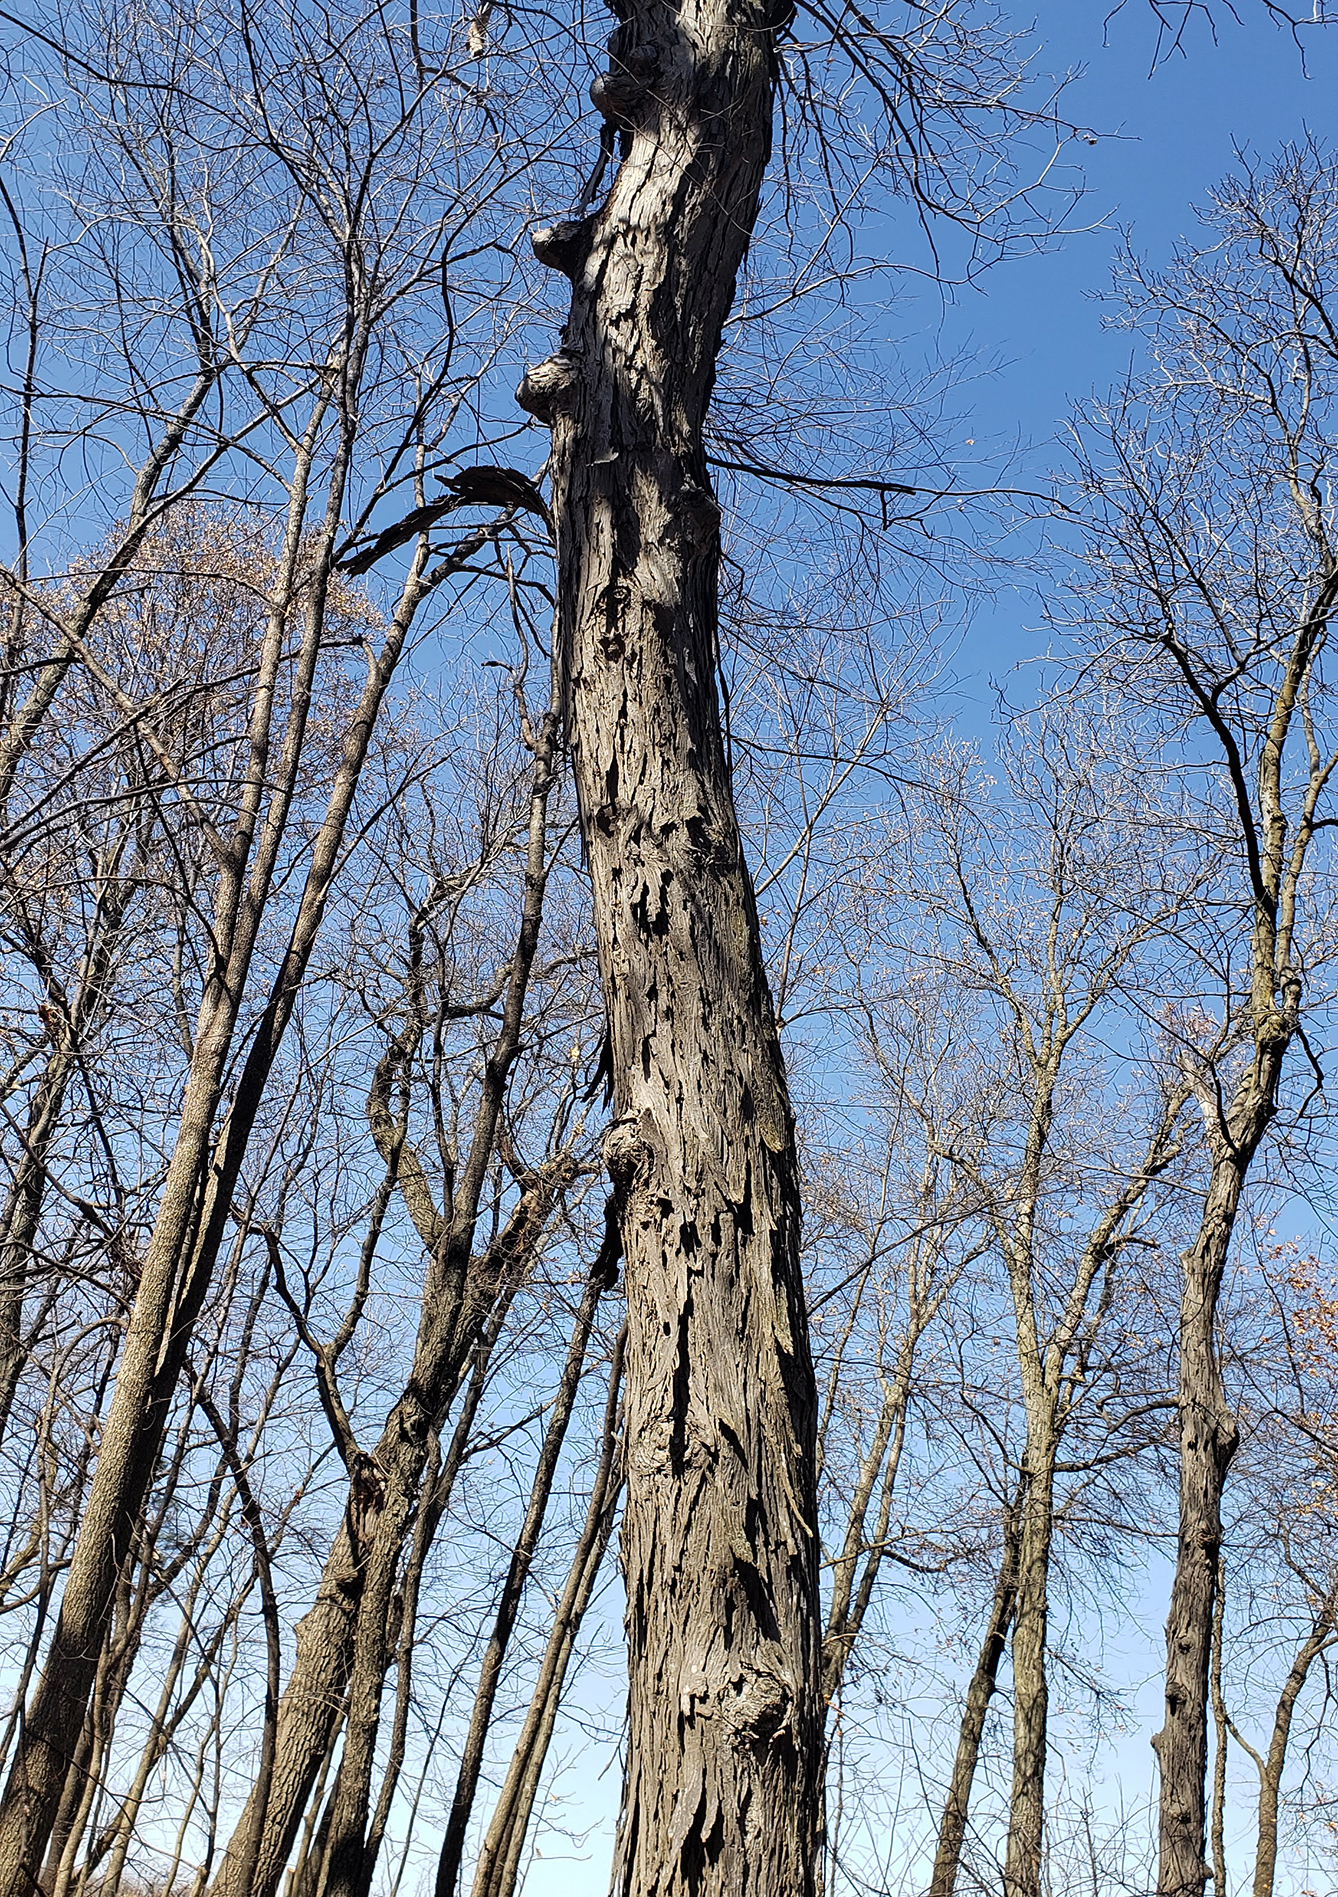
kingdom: Plantae
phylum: Tracheophyta
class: Magnoliopsida
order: Fagales
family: Juglandaceae
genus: Carya
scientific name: Carya ovata
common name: Shagbark hickory
